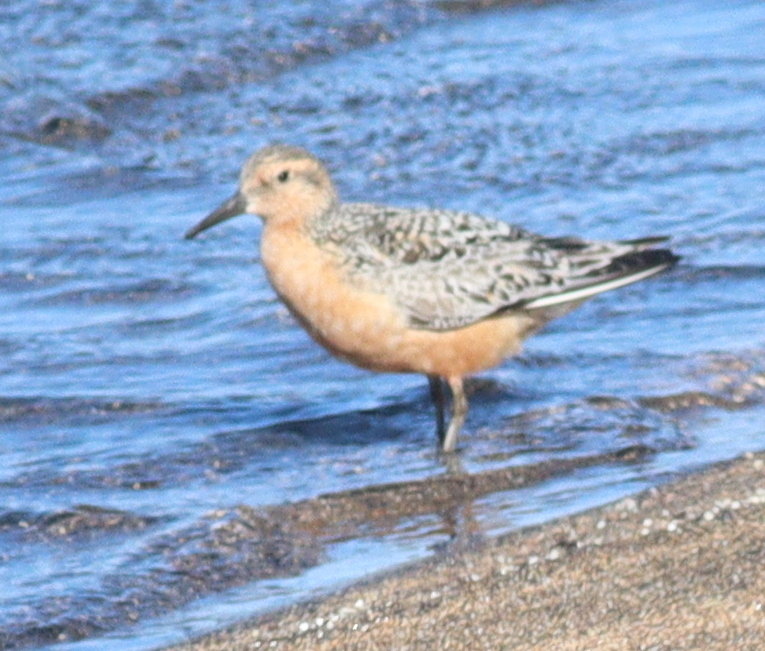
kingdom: Animalia
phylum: Chordata
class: Aves
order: Charadriiformes
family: Scolopacidae
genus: Calidris
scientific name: Calidris canutus
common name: Red knot
